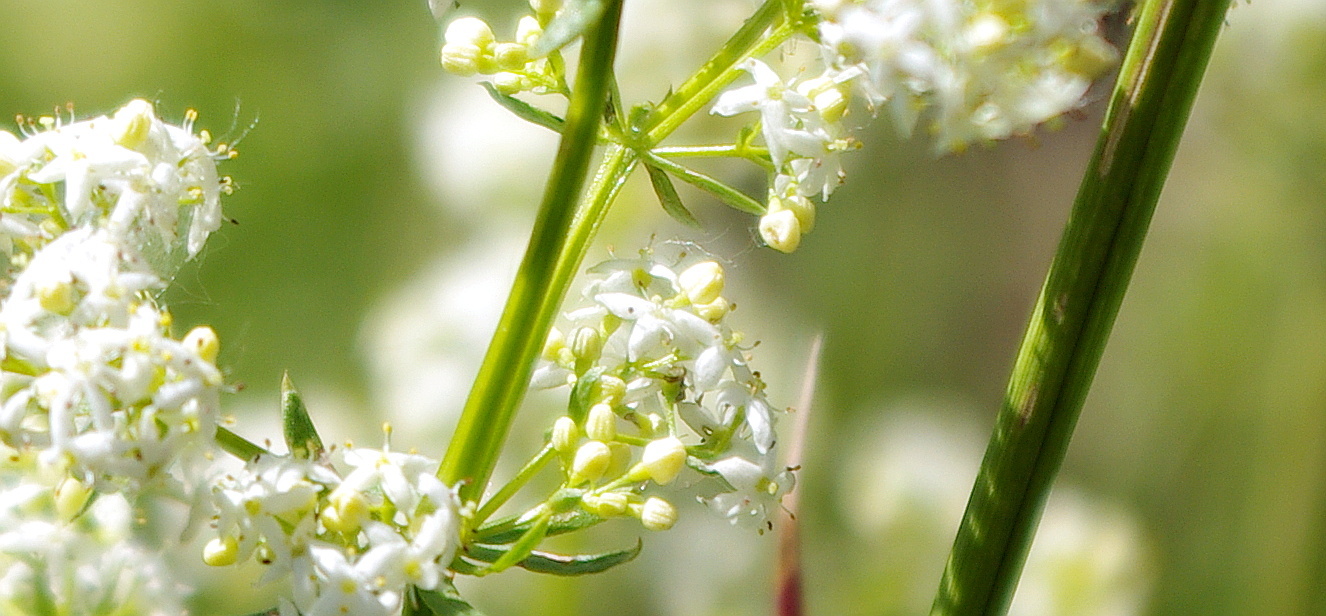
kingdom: Plantae
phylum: Tracheophyta
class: Magnoliopsida
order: Gentianales
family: Rubiaceae
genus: Galium
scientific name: Galium mollugo
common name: Hedge bedstraw
